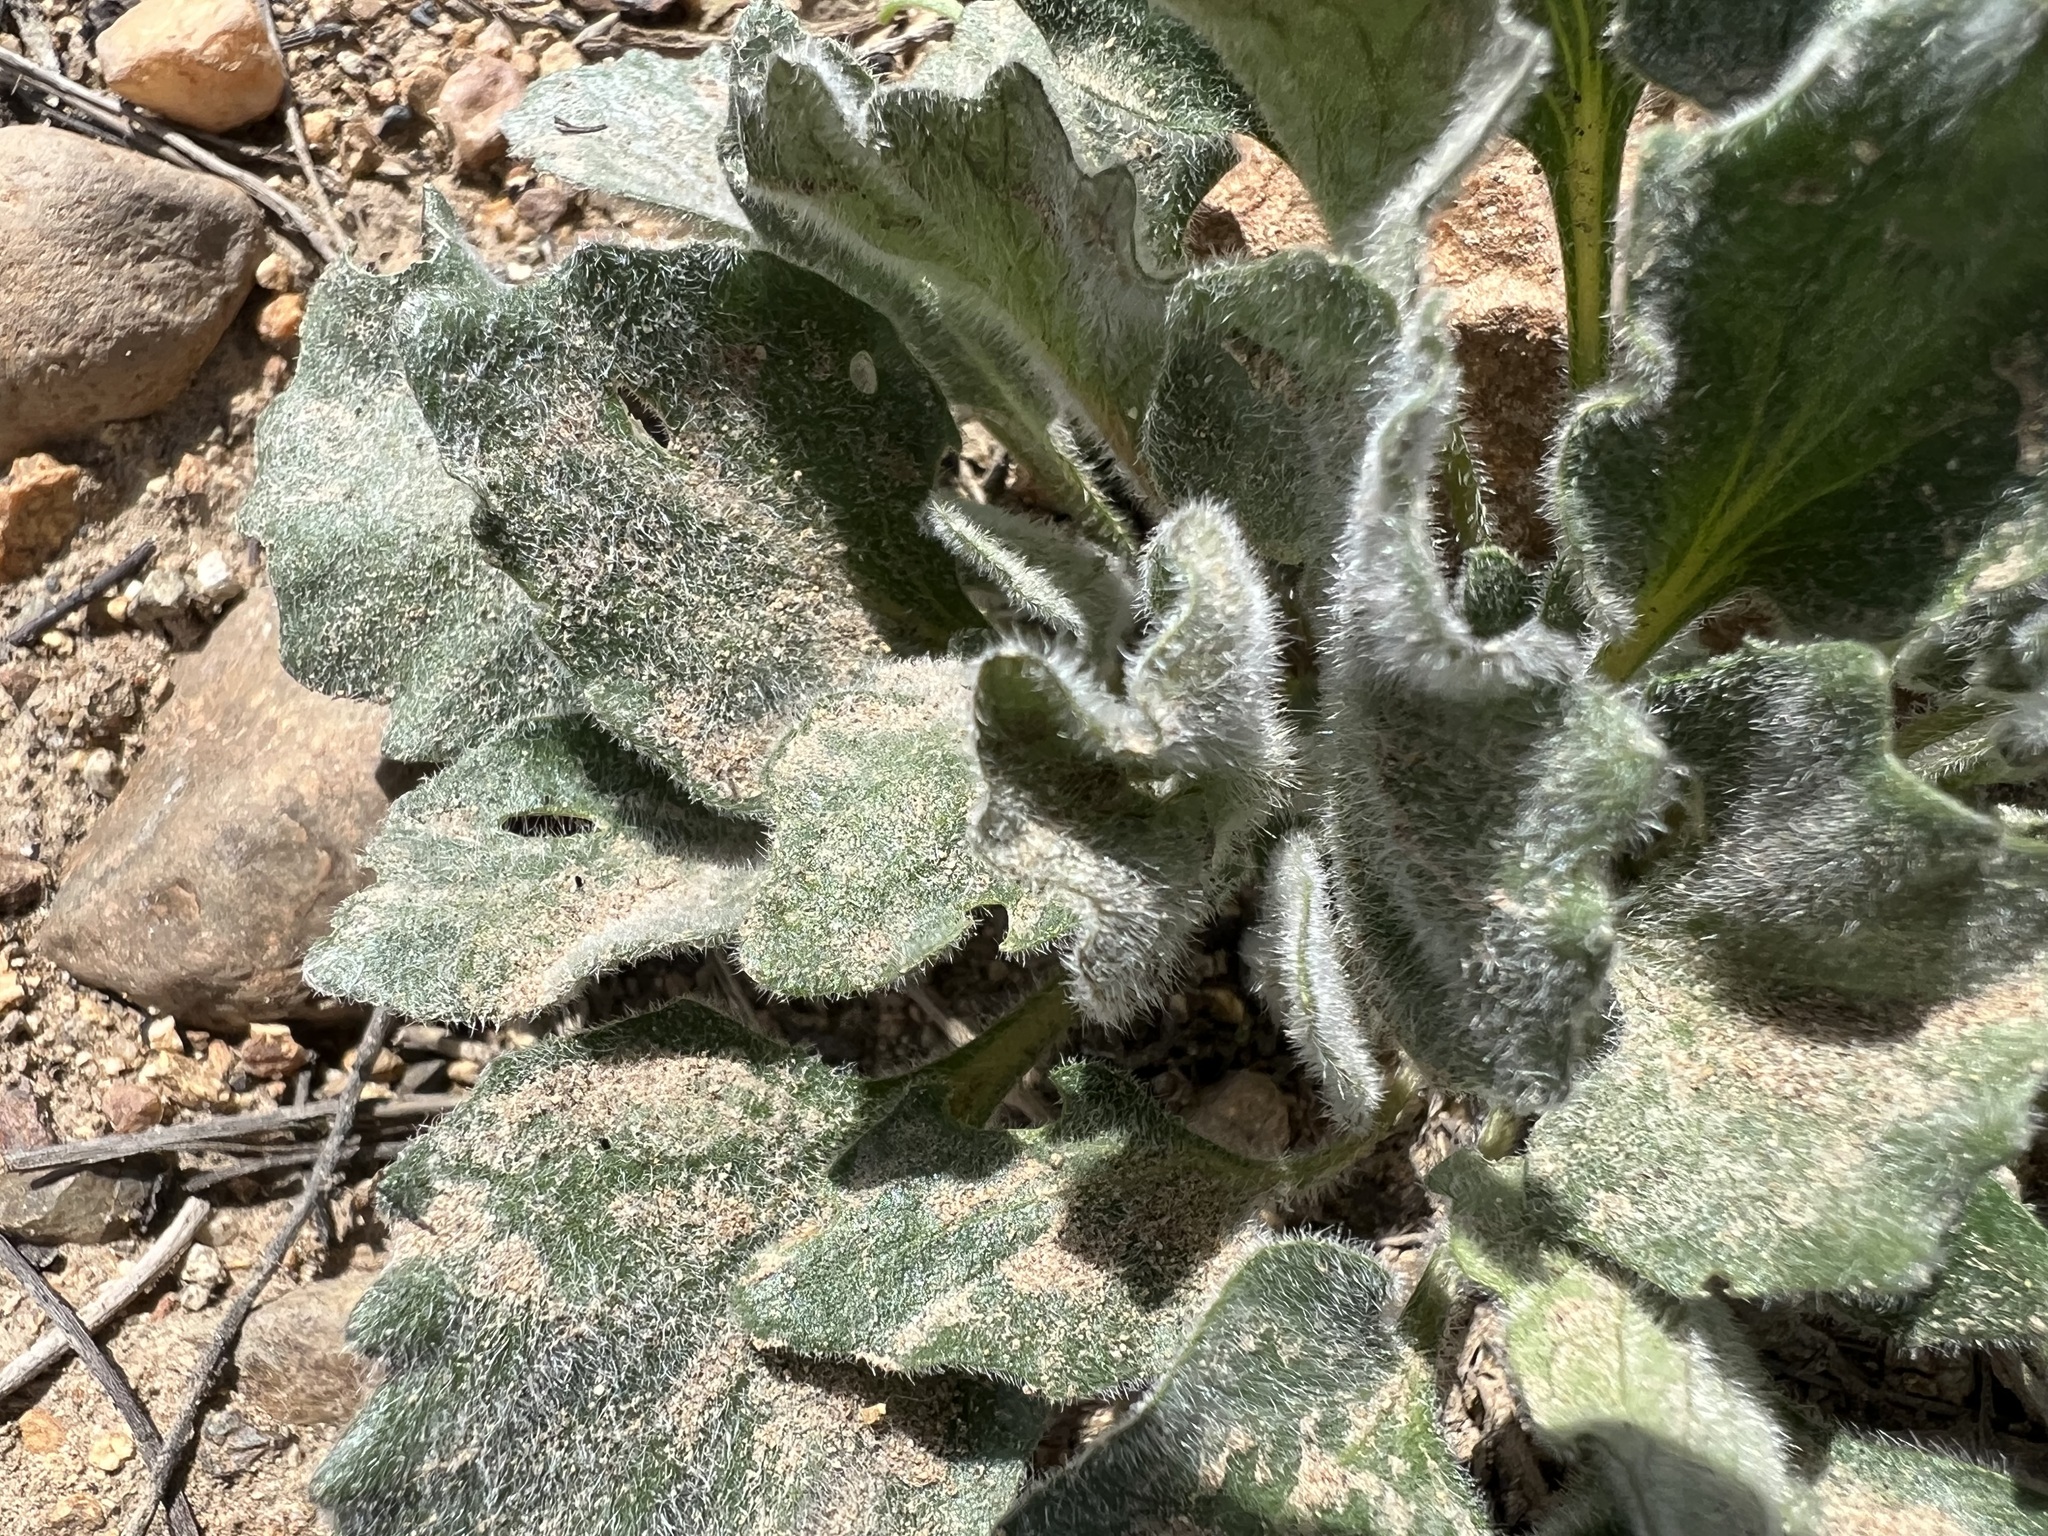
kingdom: Plantae
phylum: Tracheophyta
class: Magnoliopsida
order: Malpighiales
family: Violaceae
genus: Viola
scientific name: Viola aurea
